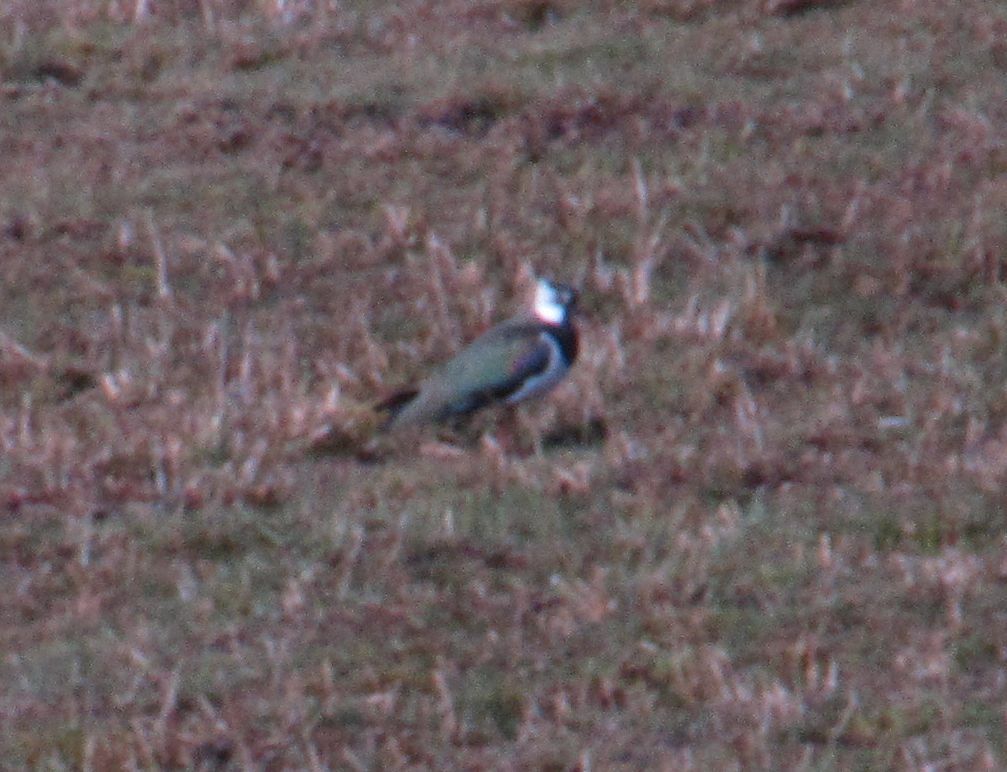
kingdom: Animalia
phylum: Chordata
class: Aves
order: Charadriiformes
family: Charadriidae
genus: Vanellus
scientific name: Vanellus vanellus
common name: Northern lapwing
